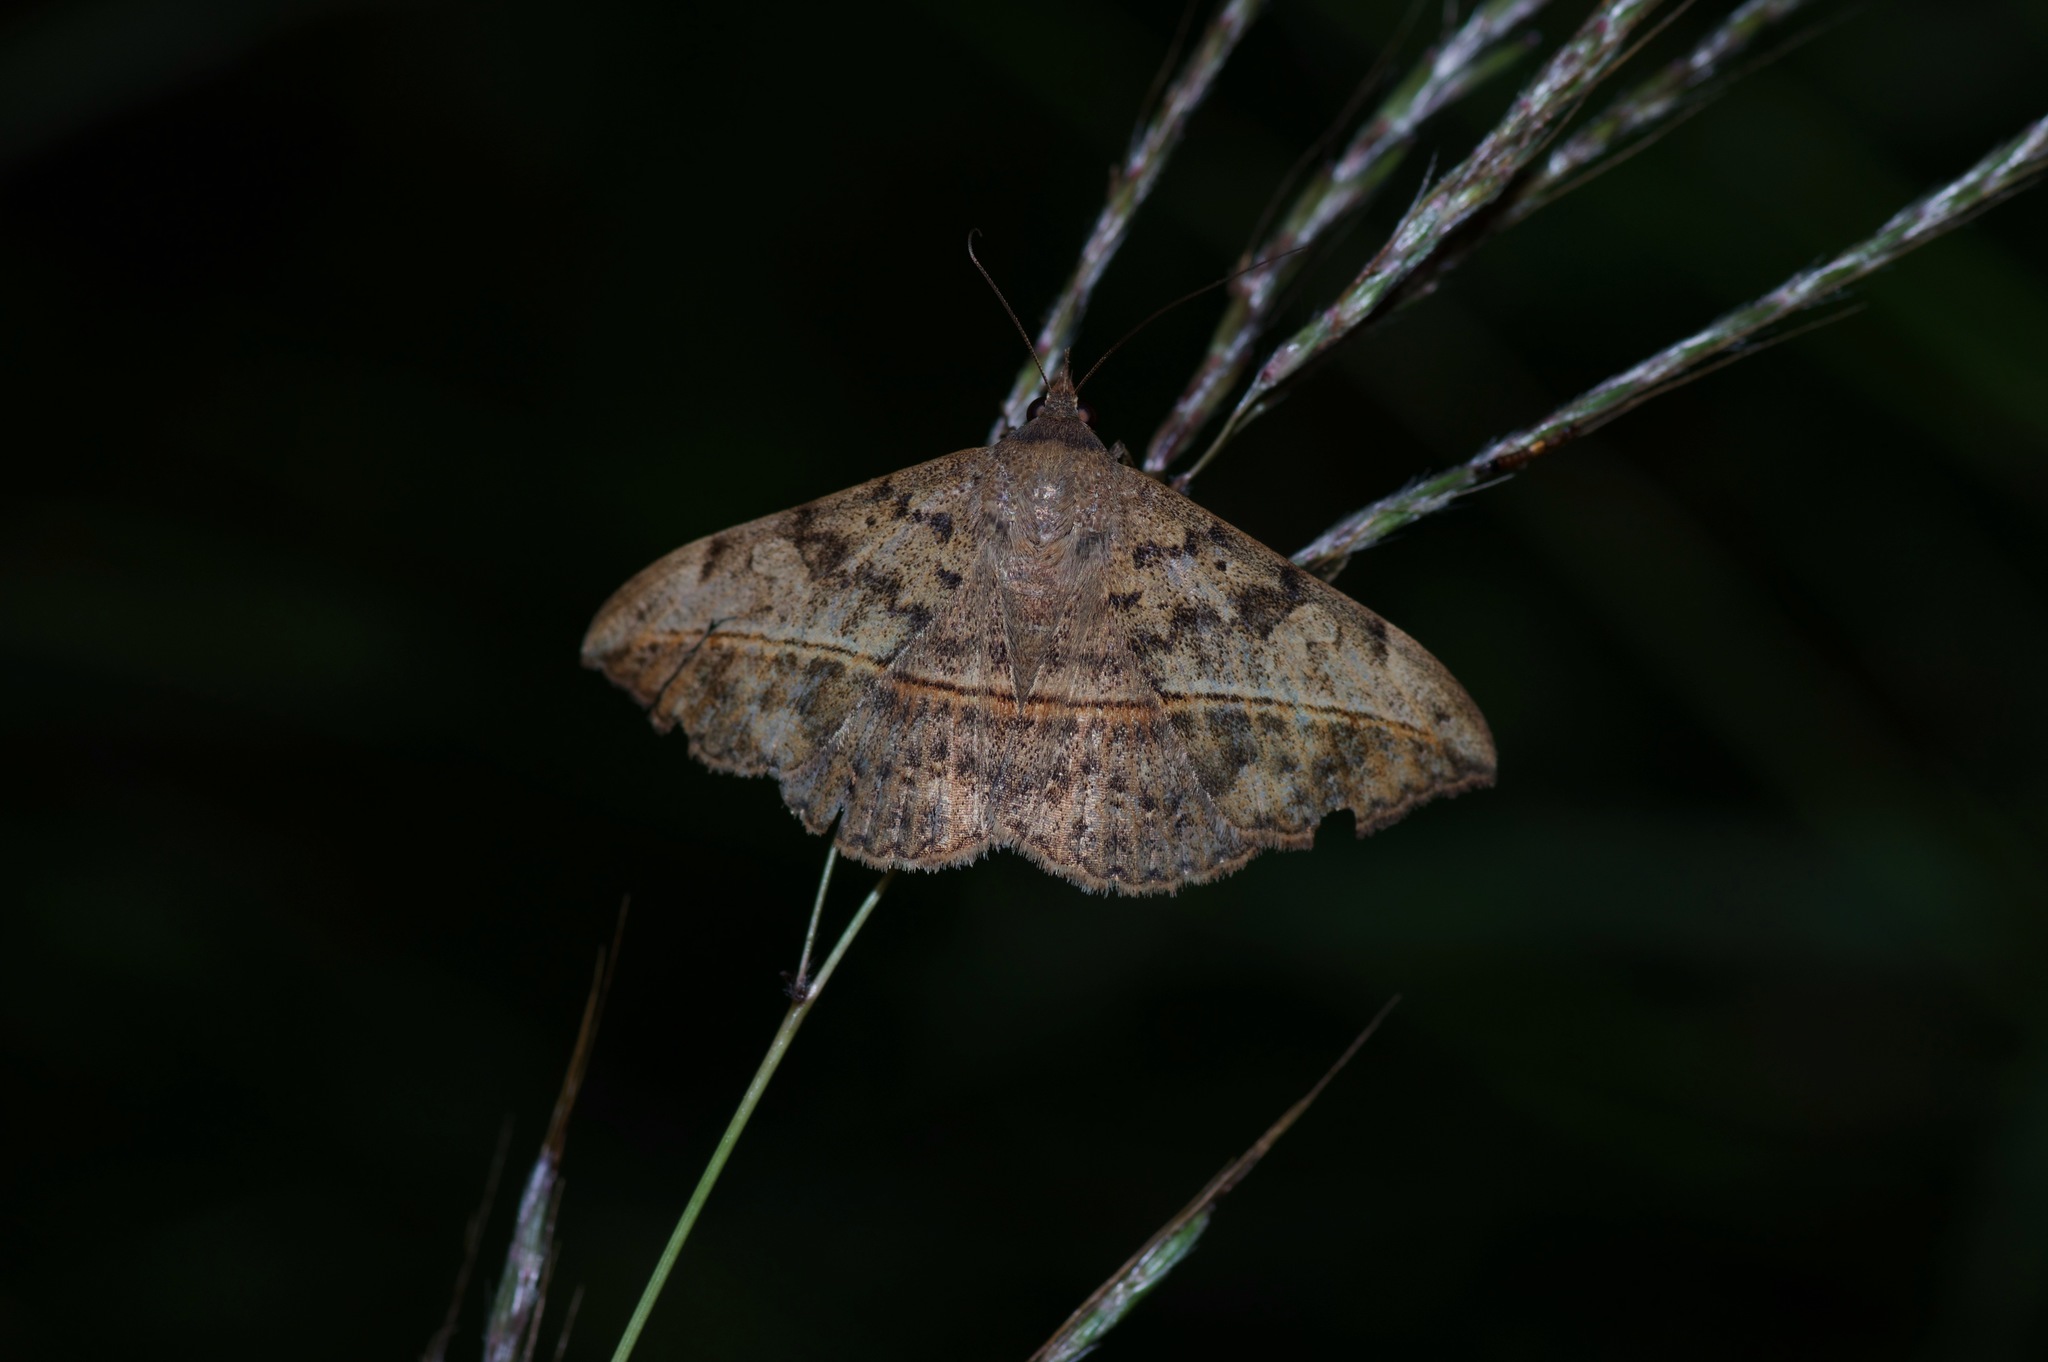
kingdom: Animalia
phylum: Arthropoda
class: Insecta
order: Lepidoptera
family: Erebidae
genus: Anticarsia
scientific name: Anticarsia gemmatalis
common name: Cutworm moth
